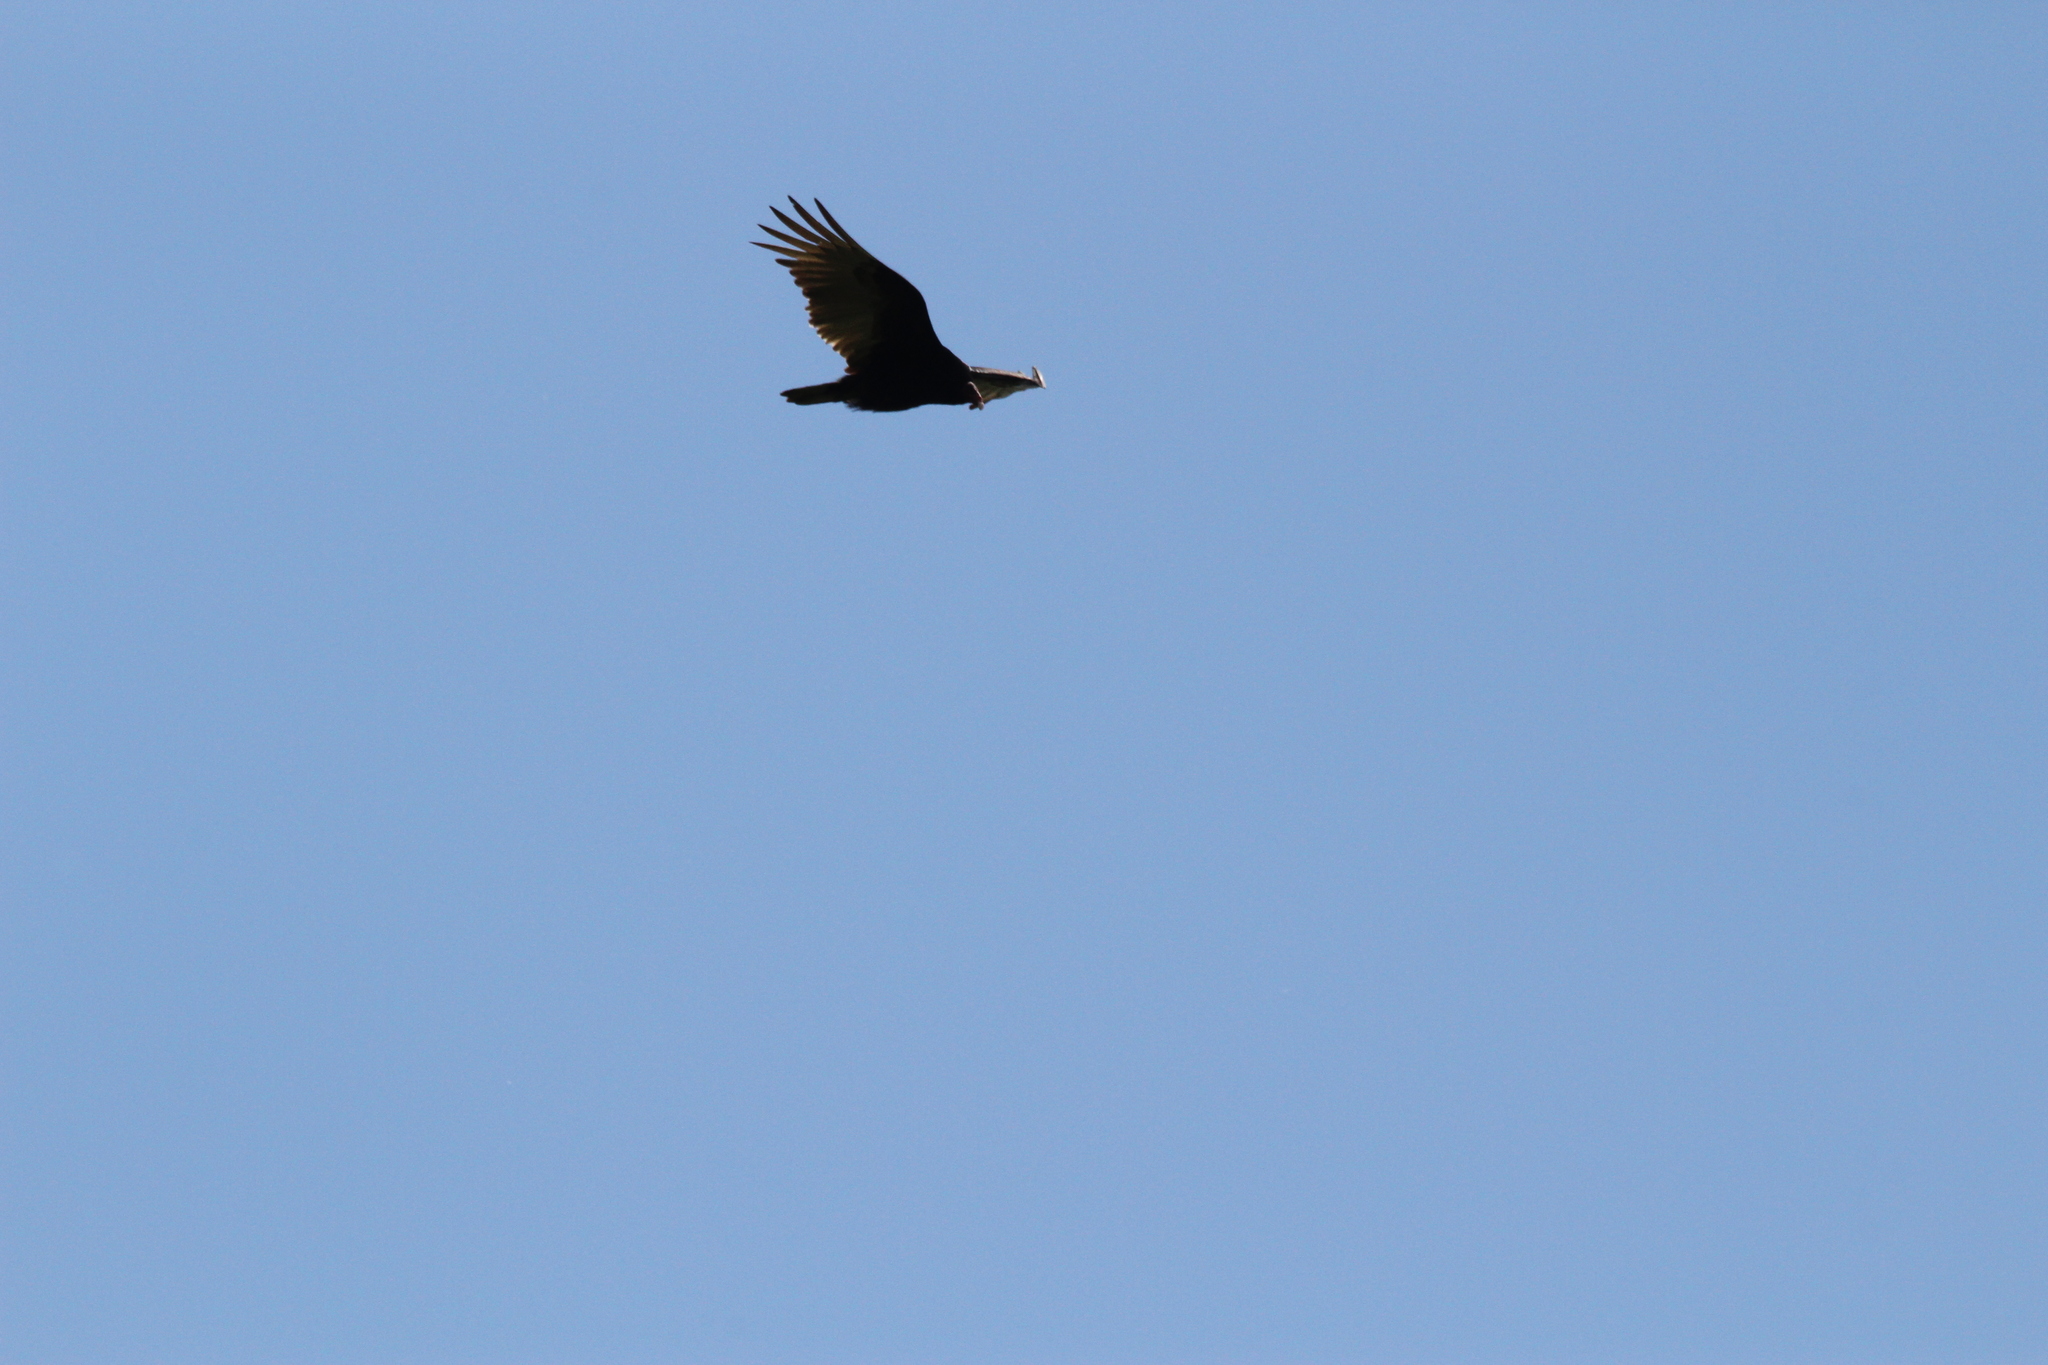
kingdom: Animalia
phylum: Chordata
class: Aves
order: Accipitriformes
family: Cathartidae
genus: Cathartes
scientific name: Cathartes aura
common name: Turkey vulture
